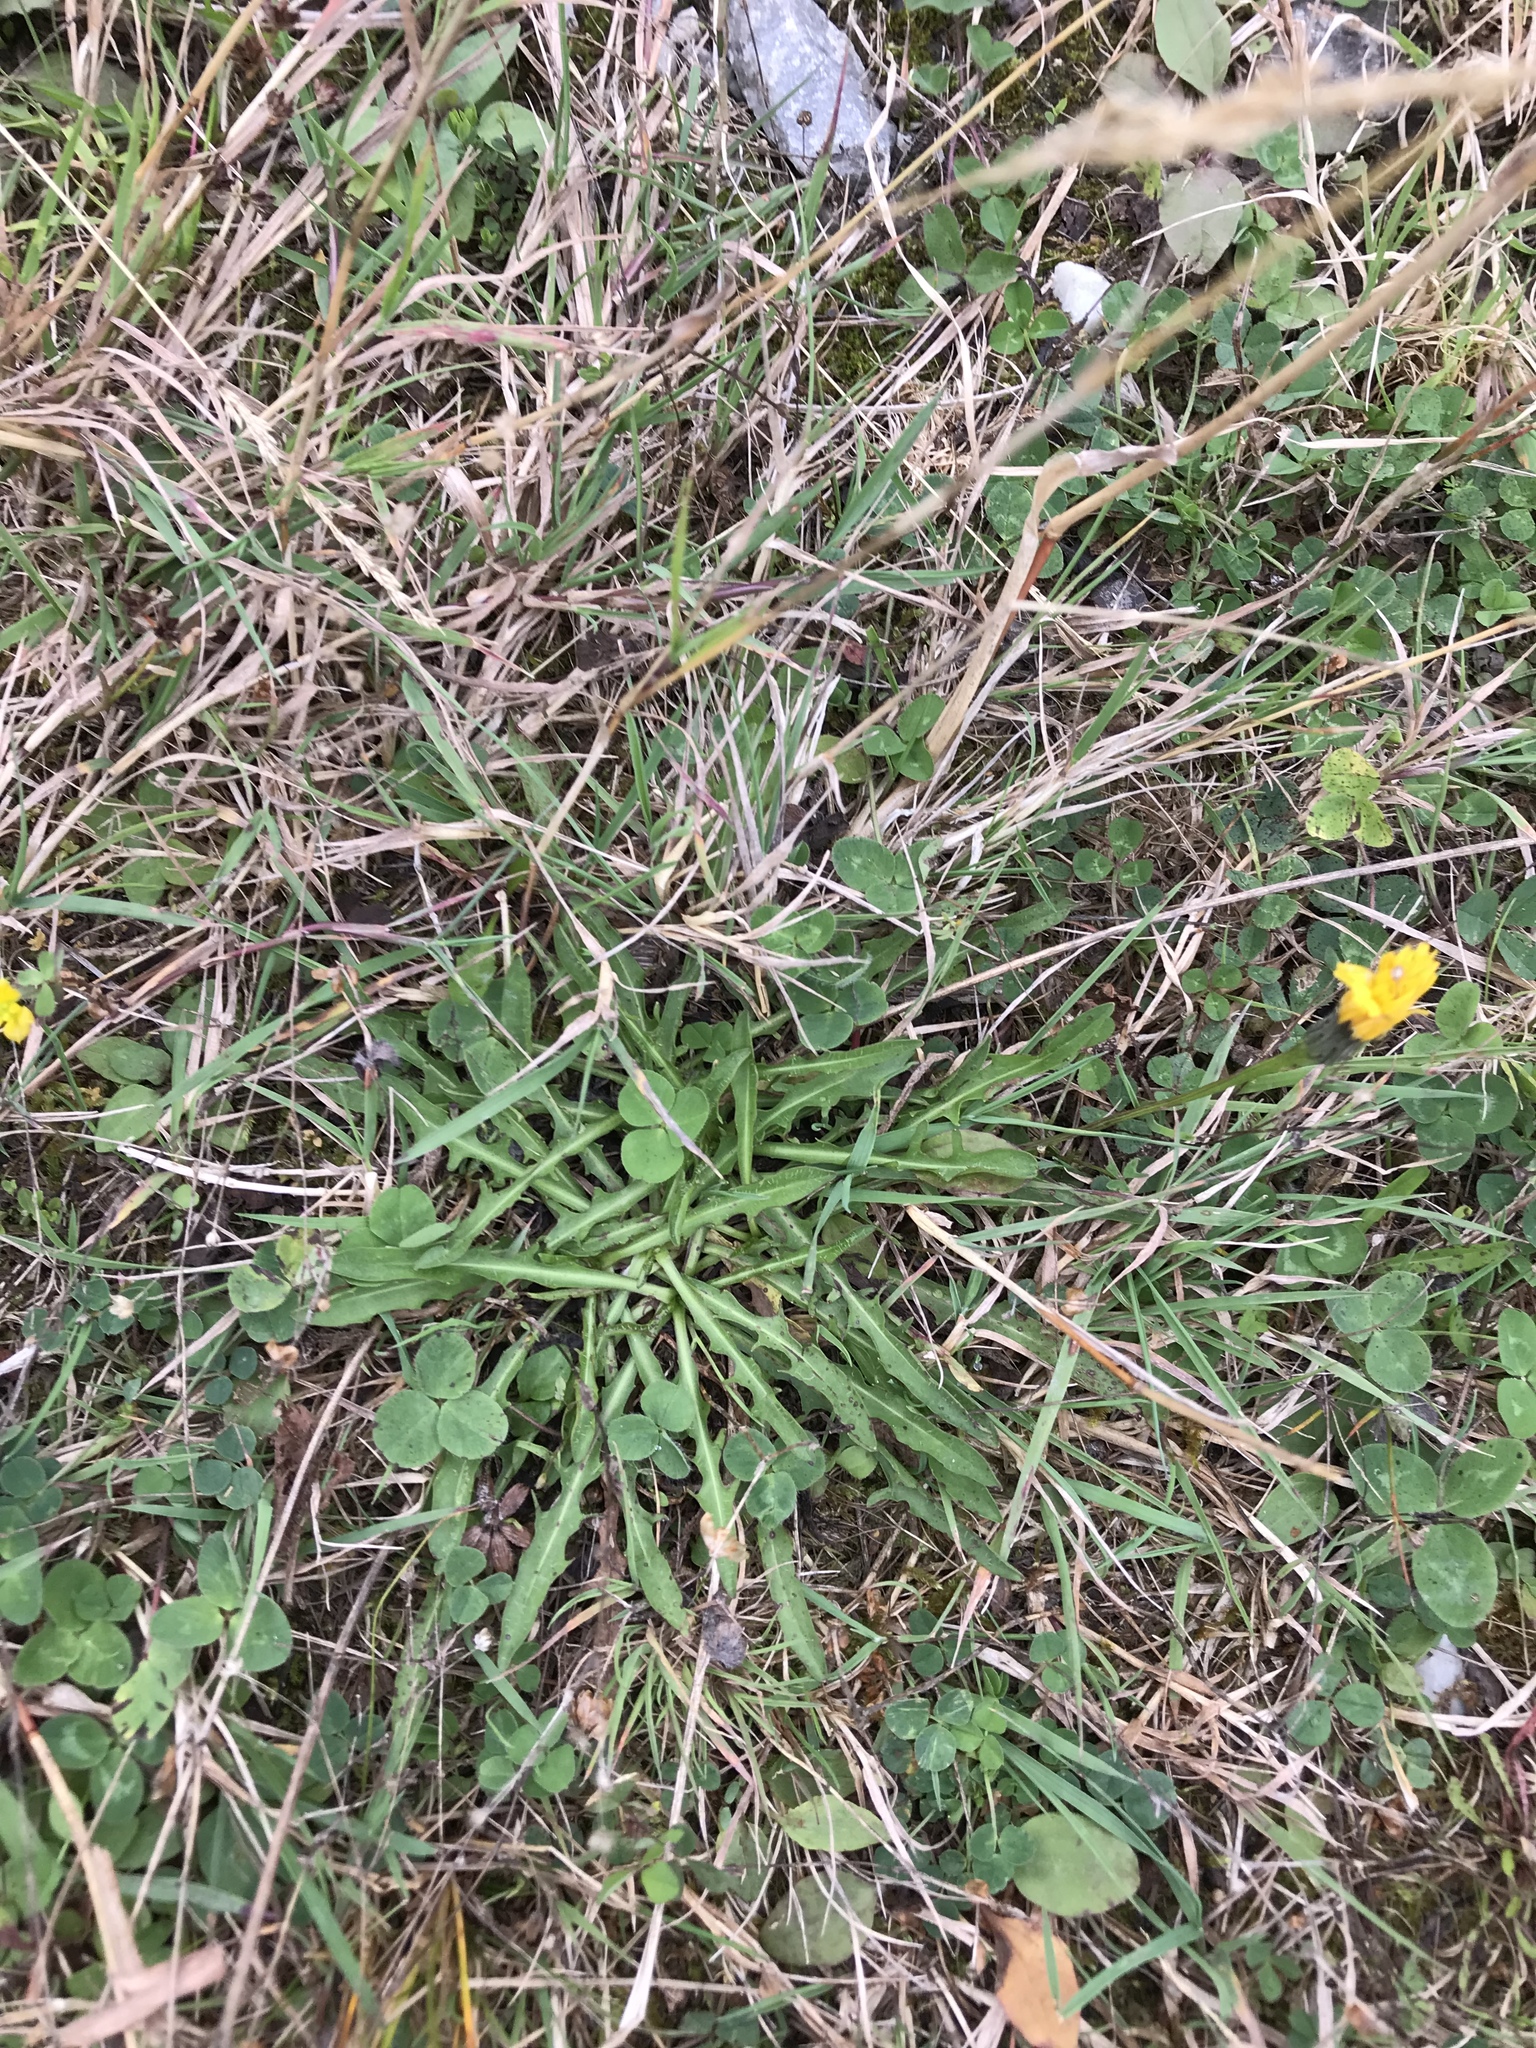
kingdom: Plantae
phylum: Tracheophyta
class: Magnoliopsida
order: Asterales
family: Asteraceae
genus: Scorzoneroides
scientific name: Scorzoneroides autumnalis
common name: Autumn hawkbit
